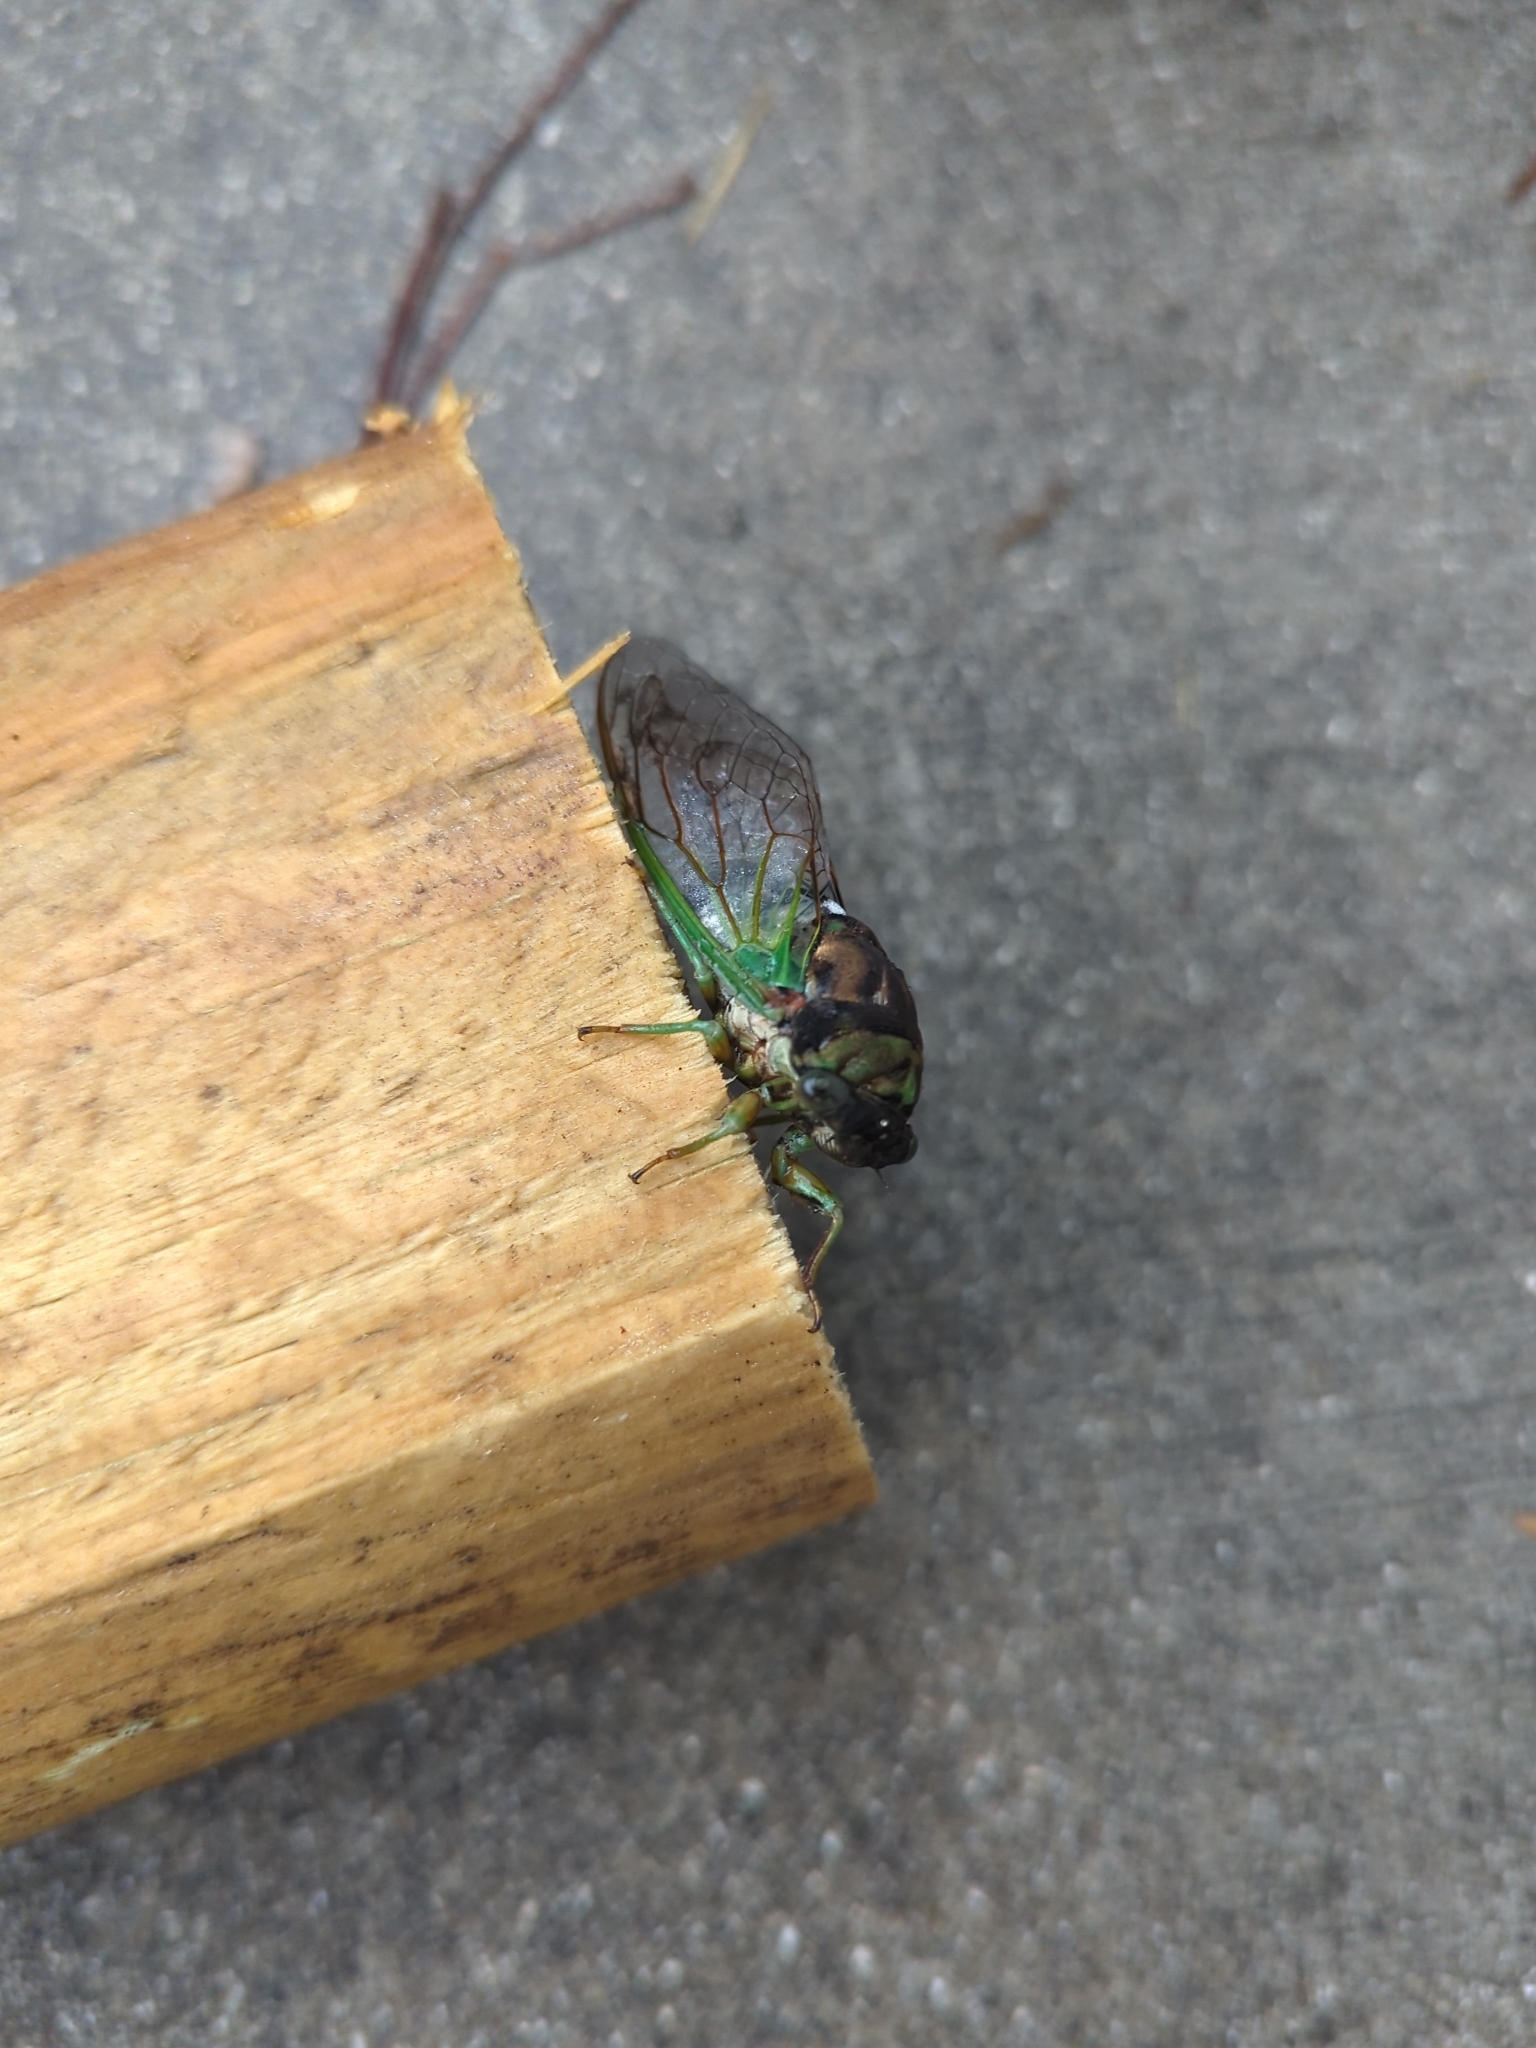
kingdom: Animalia
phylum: Arthropoda
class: Insecta
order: Hemiptera
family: Cicadidae
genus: Neotibicen
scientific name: Neotibicen tibicen
